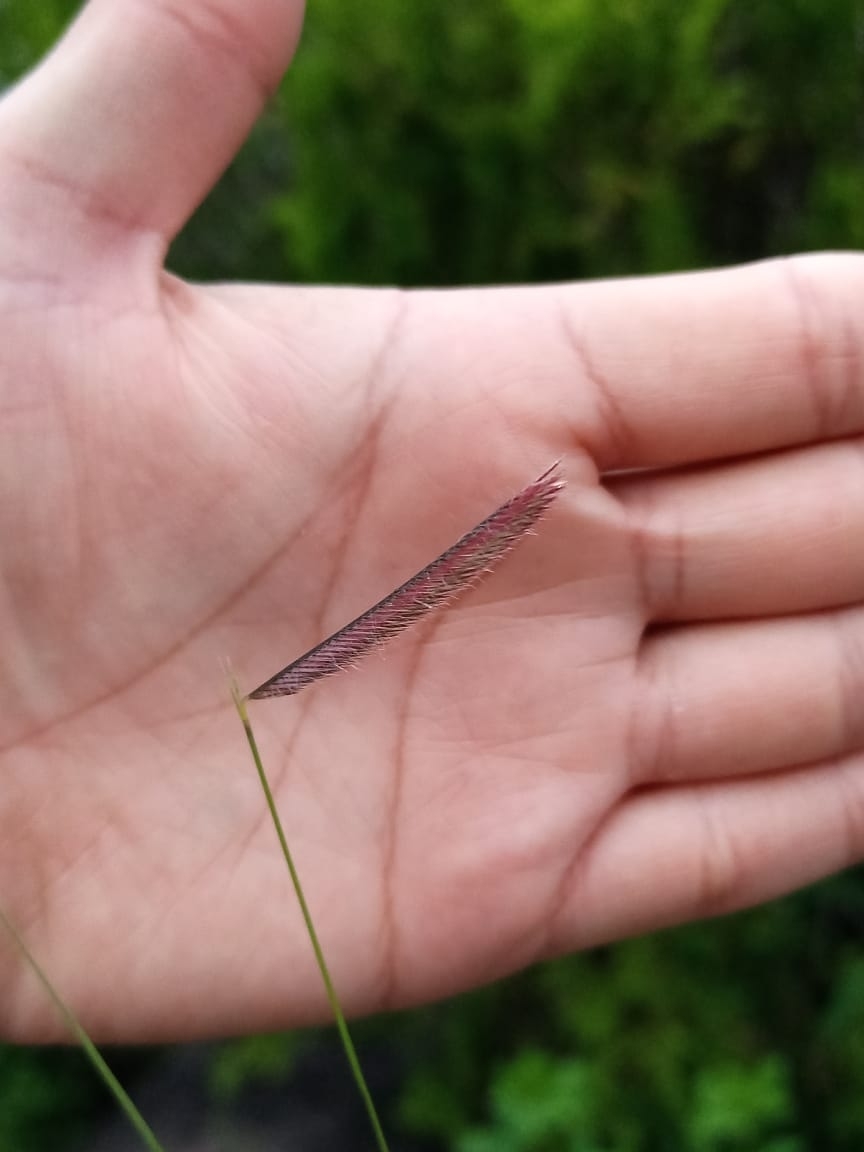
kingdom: Plantae
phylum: Tracheophyta
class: Liliopsida
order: Poales
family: Poaceae
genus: Bouteloua
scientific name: Bouteloua gracilis
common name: Blue grama
